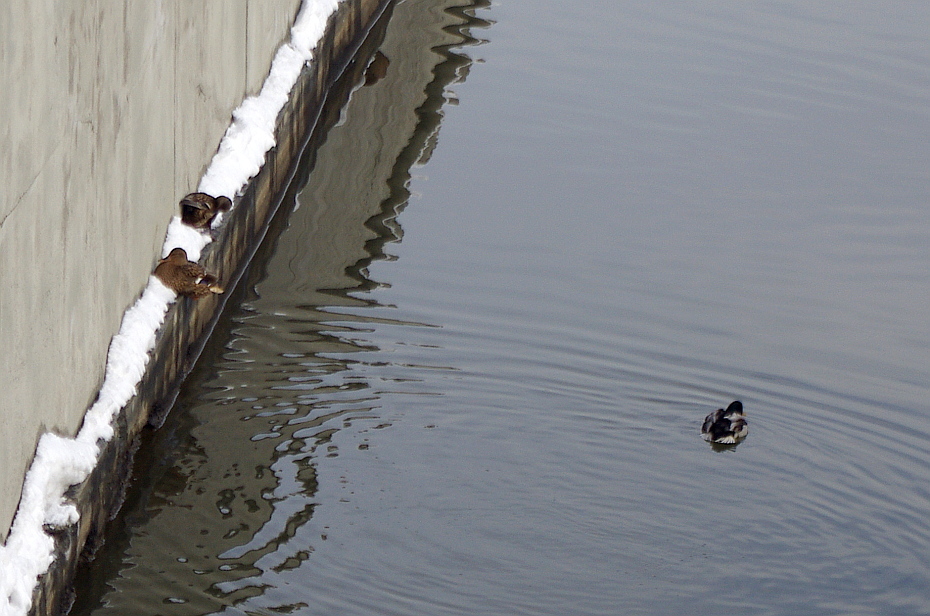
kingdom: Animalia
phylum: Chordata
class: Aves
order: Anseriformes
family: Anatidae
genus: Anas
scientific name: Anas platyrhynchos
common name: Mallard
